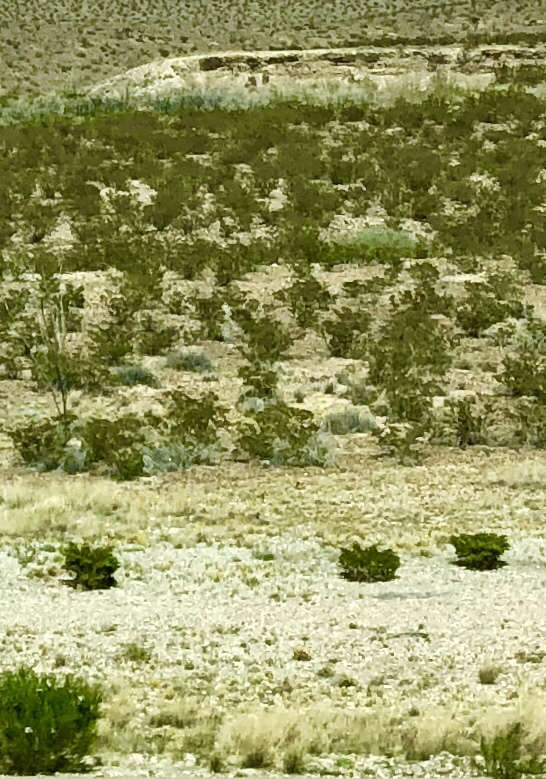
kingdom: Plantae
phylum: Tracheophyta
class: Magnoliopsida
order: Zygophyllales
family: Zygophyllaceae
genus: Larrea
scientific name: Larrea tridentata
